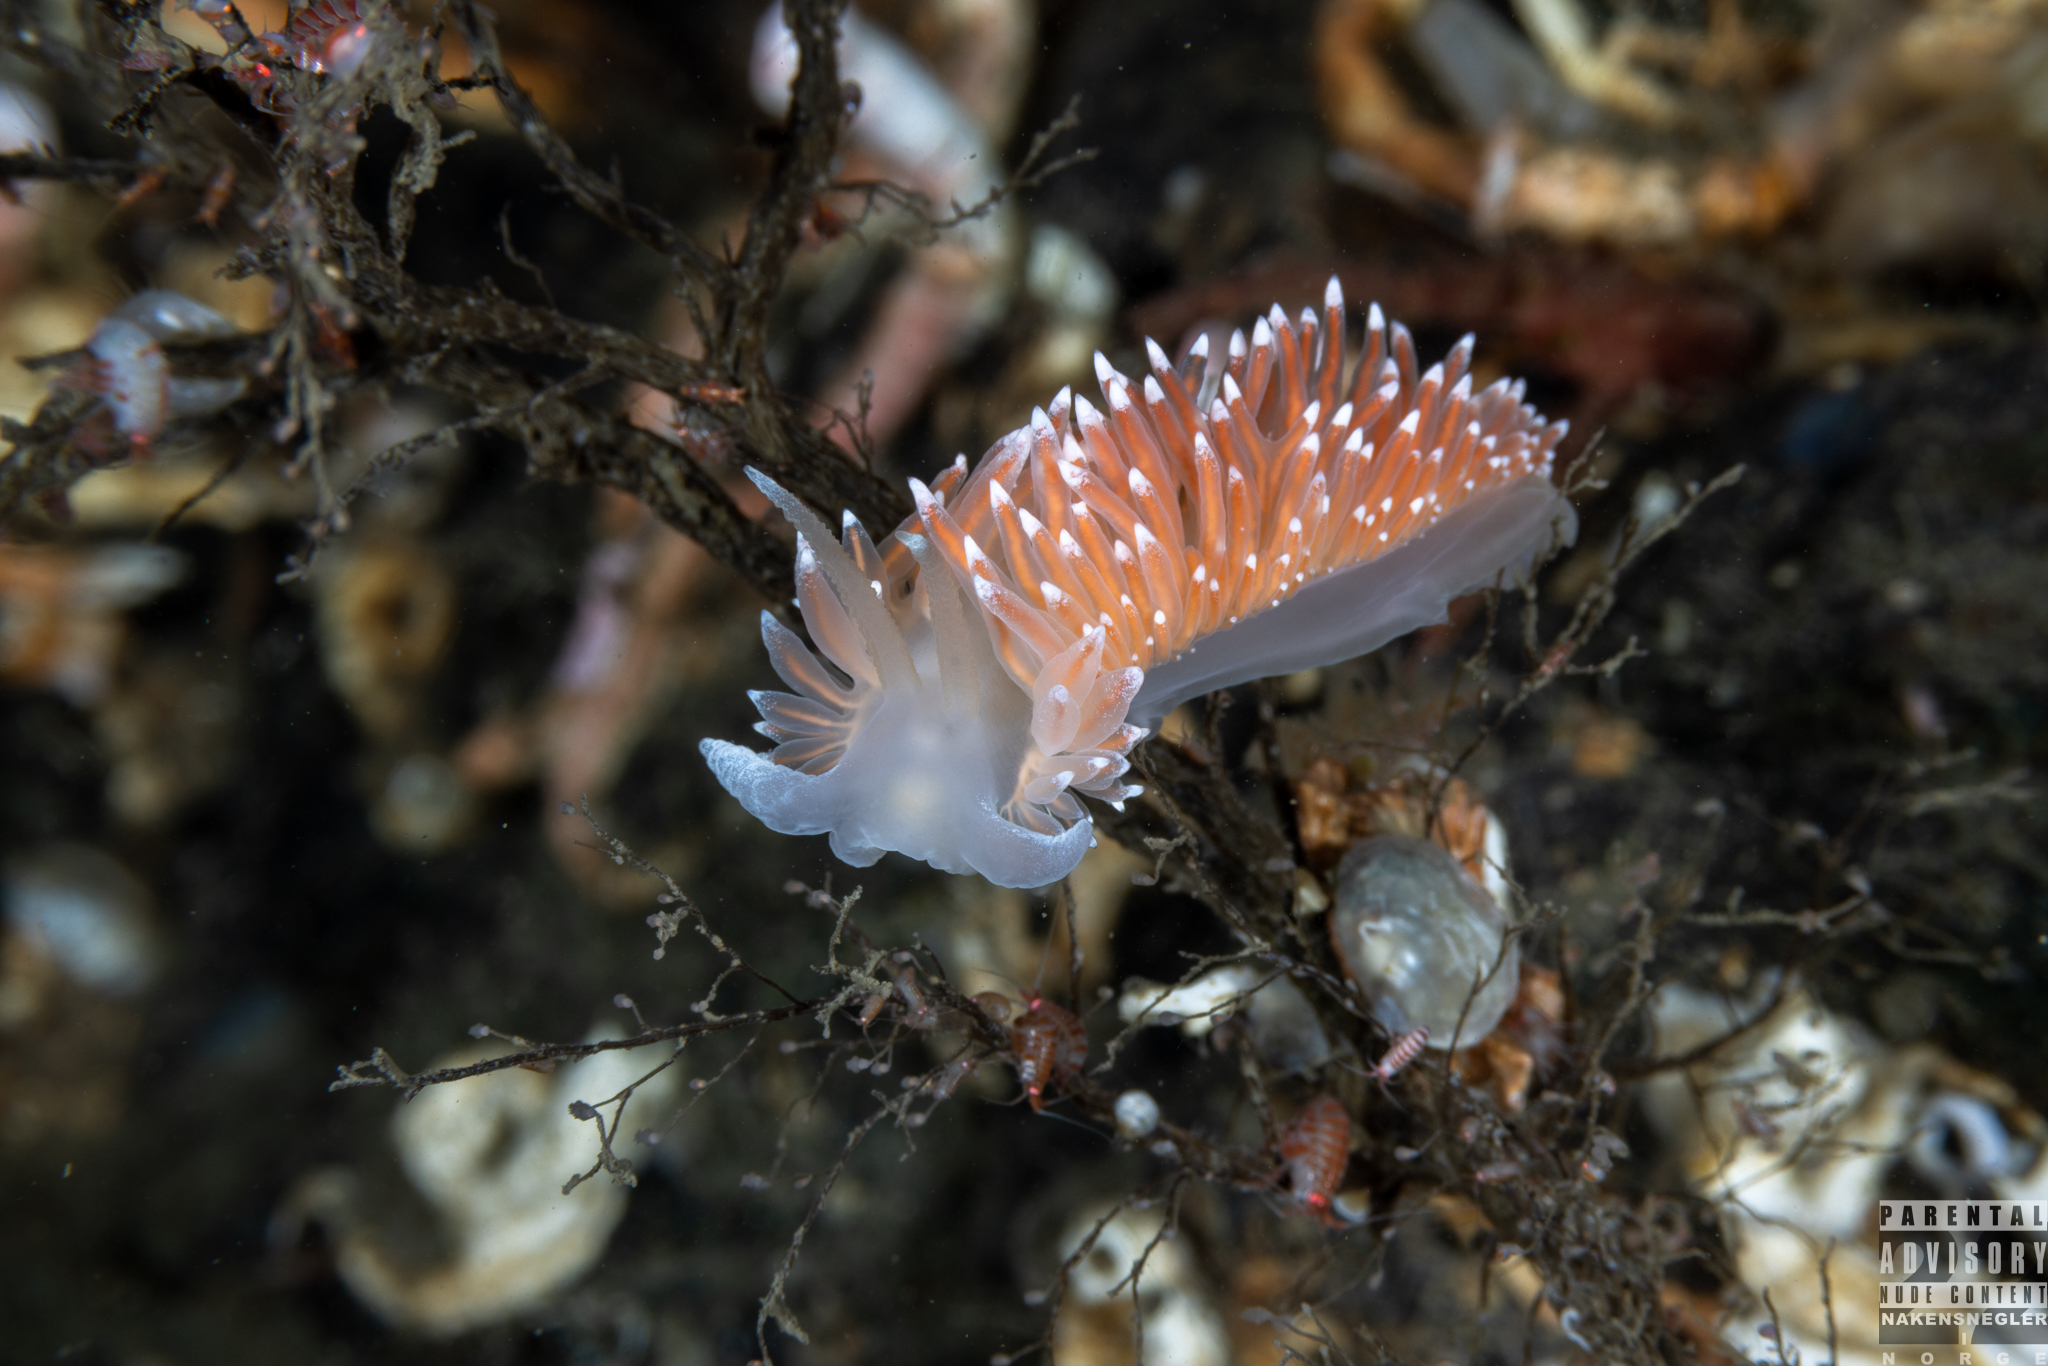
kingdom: Animalia
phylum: Mollusca
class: Gastropoda
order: Nudibranchia
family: Coryphellidae
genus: Coryphella
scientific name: Coryphella nobilis
